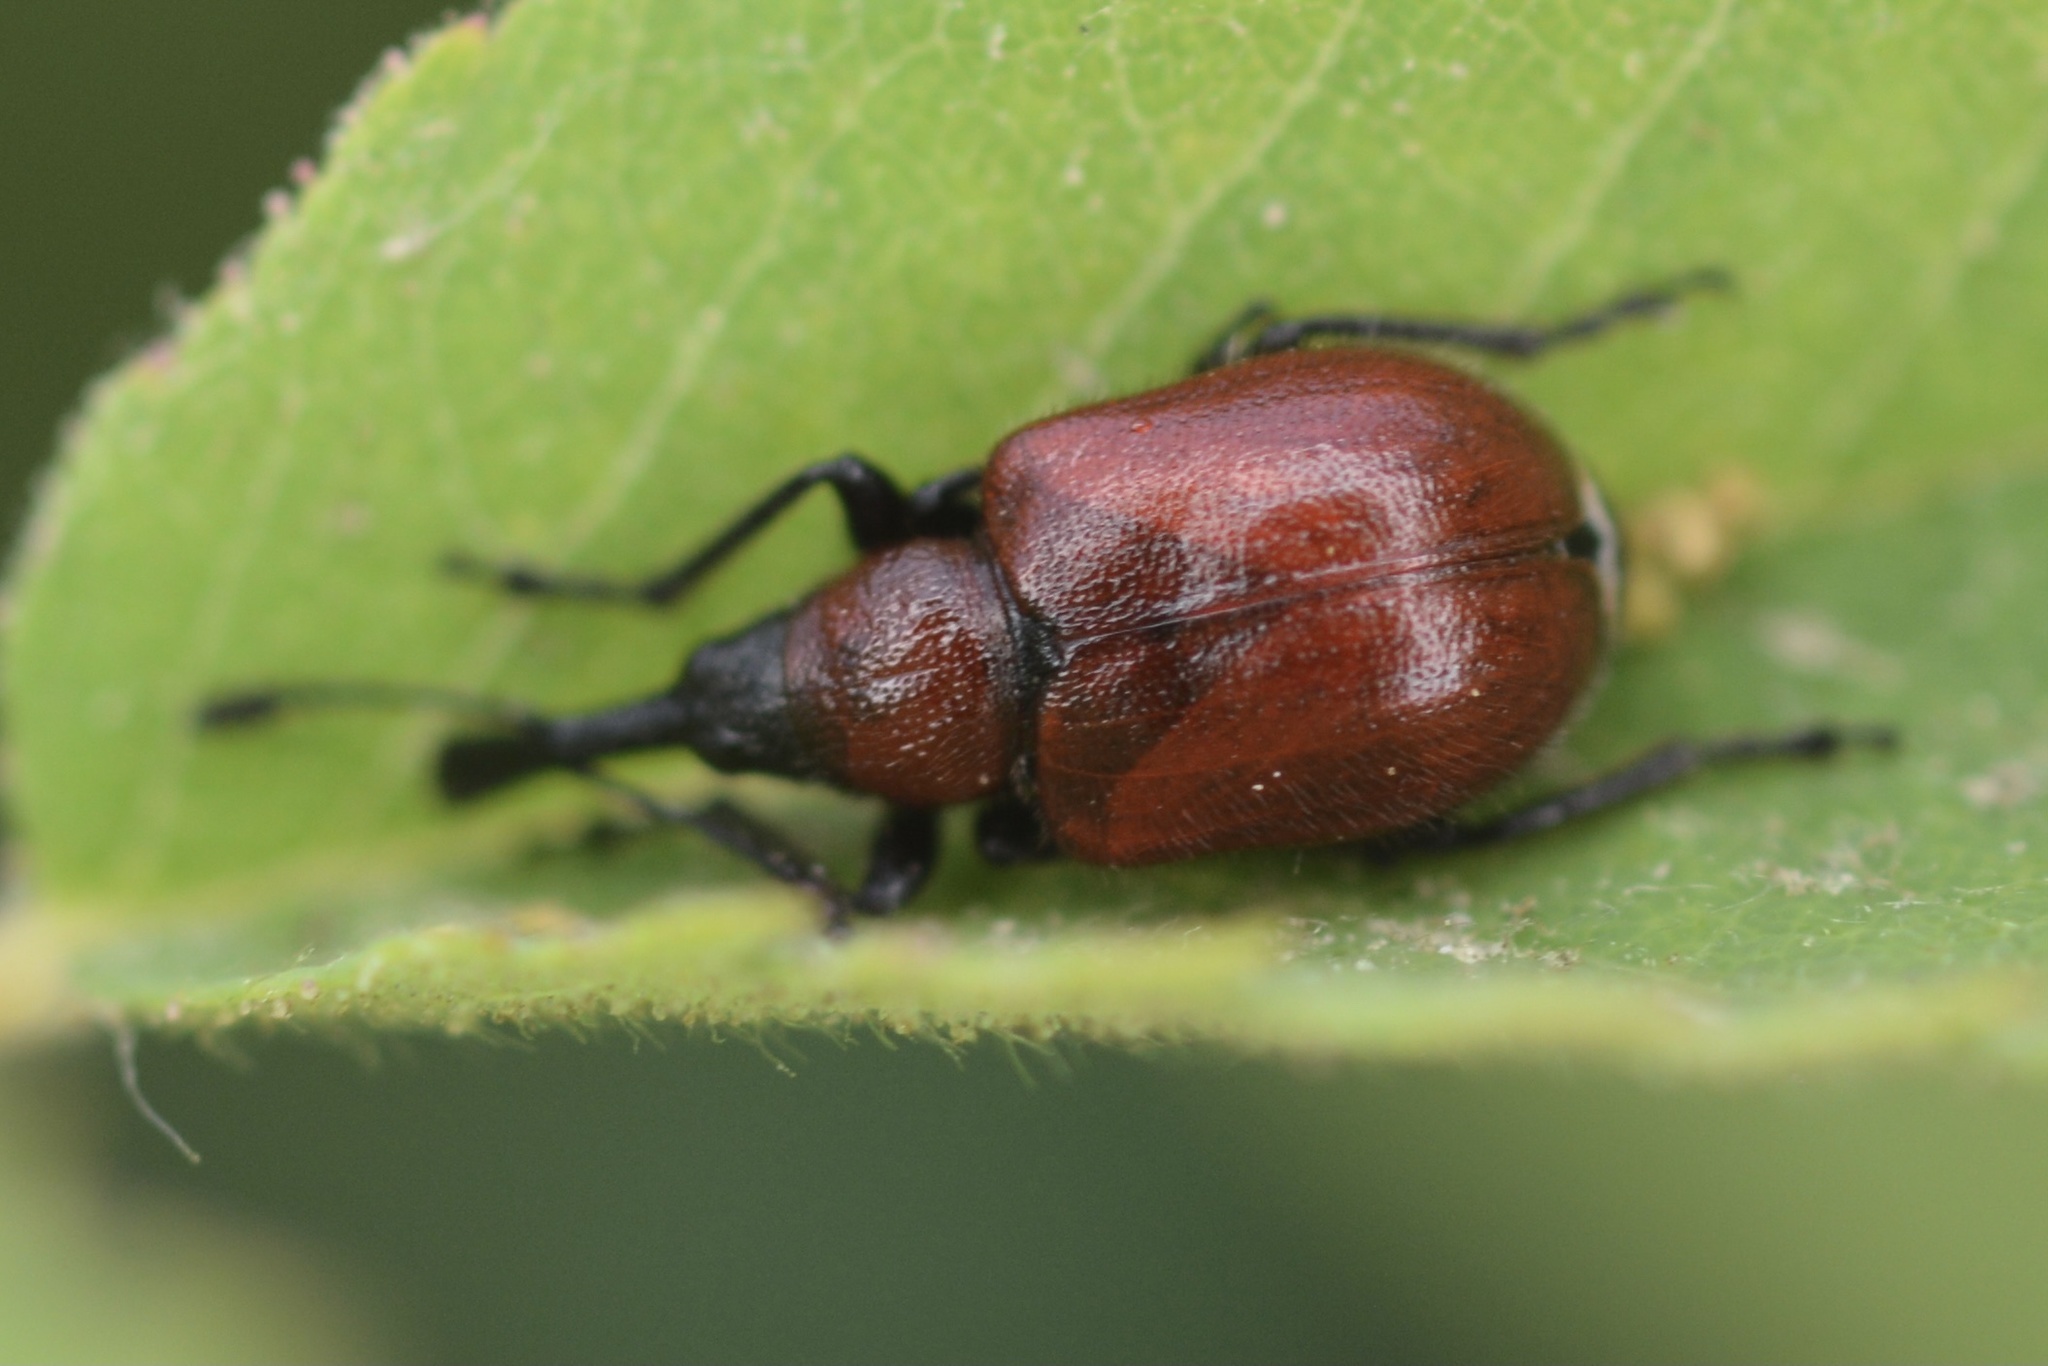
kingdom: Animalia
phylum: Arthropoda
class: Insecta
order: Coleoptera
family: Attelabidae
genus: Merhynchites
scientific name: Merhynchites wickhami
